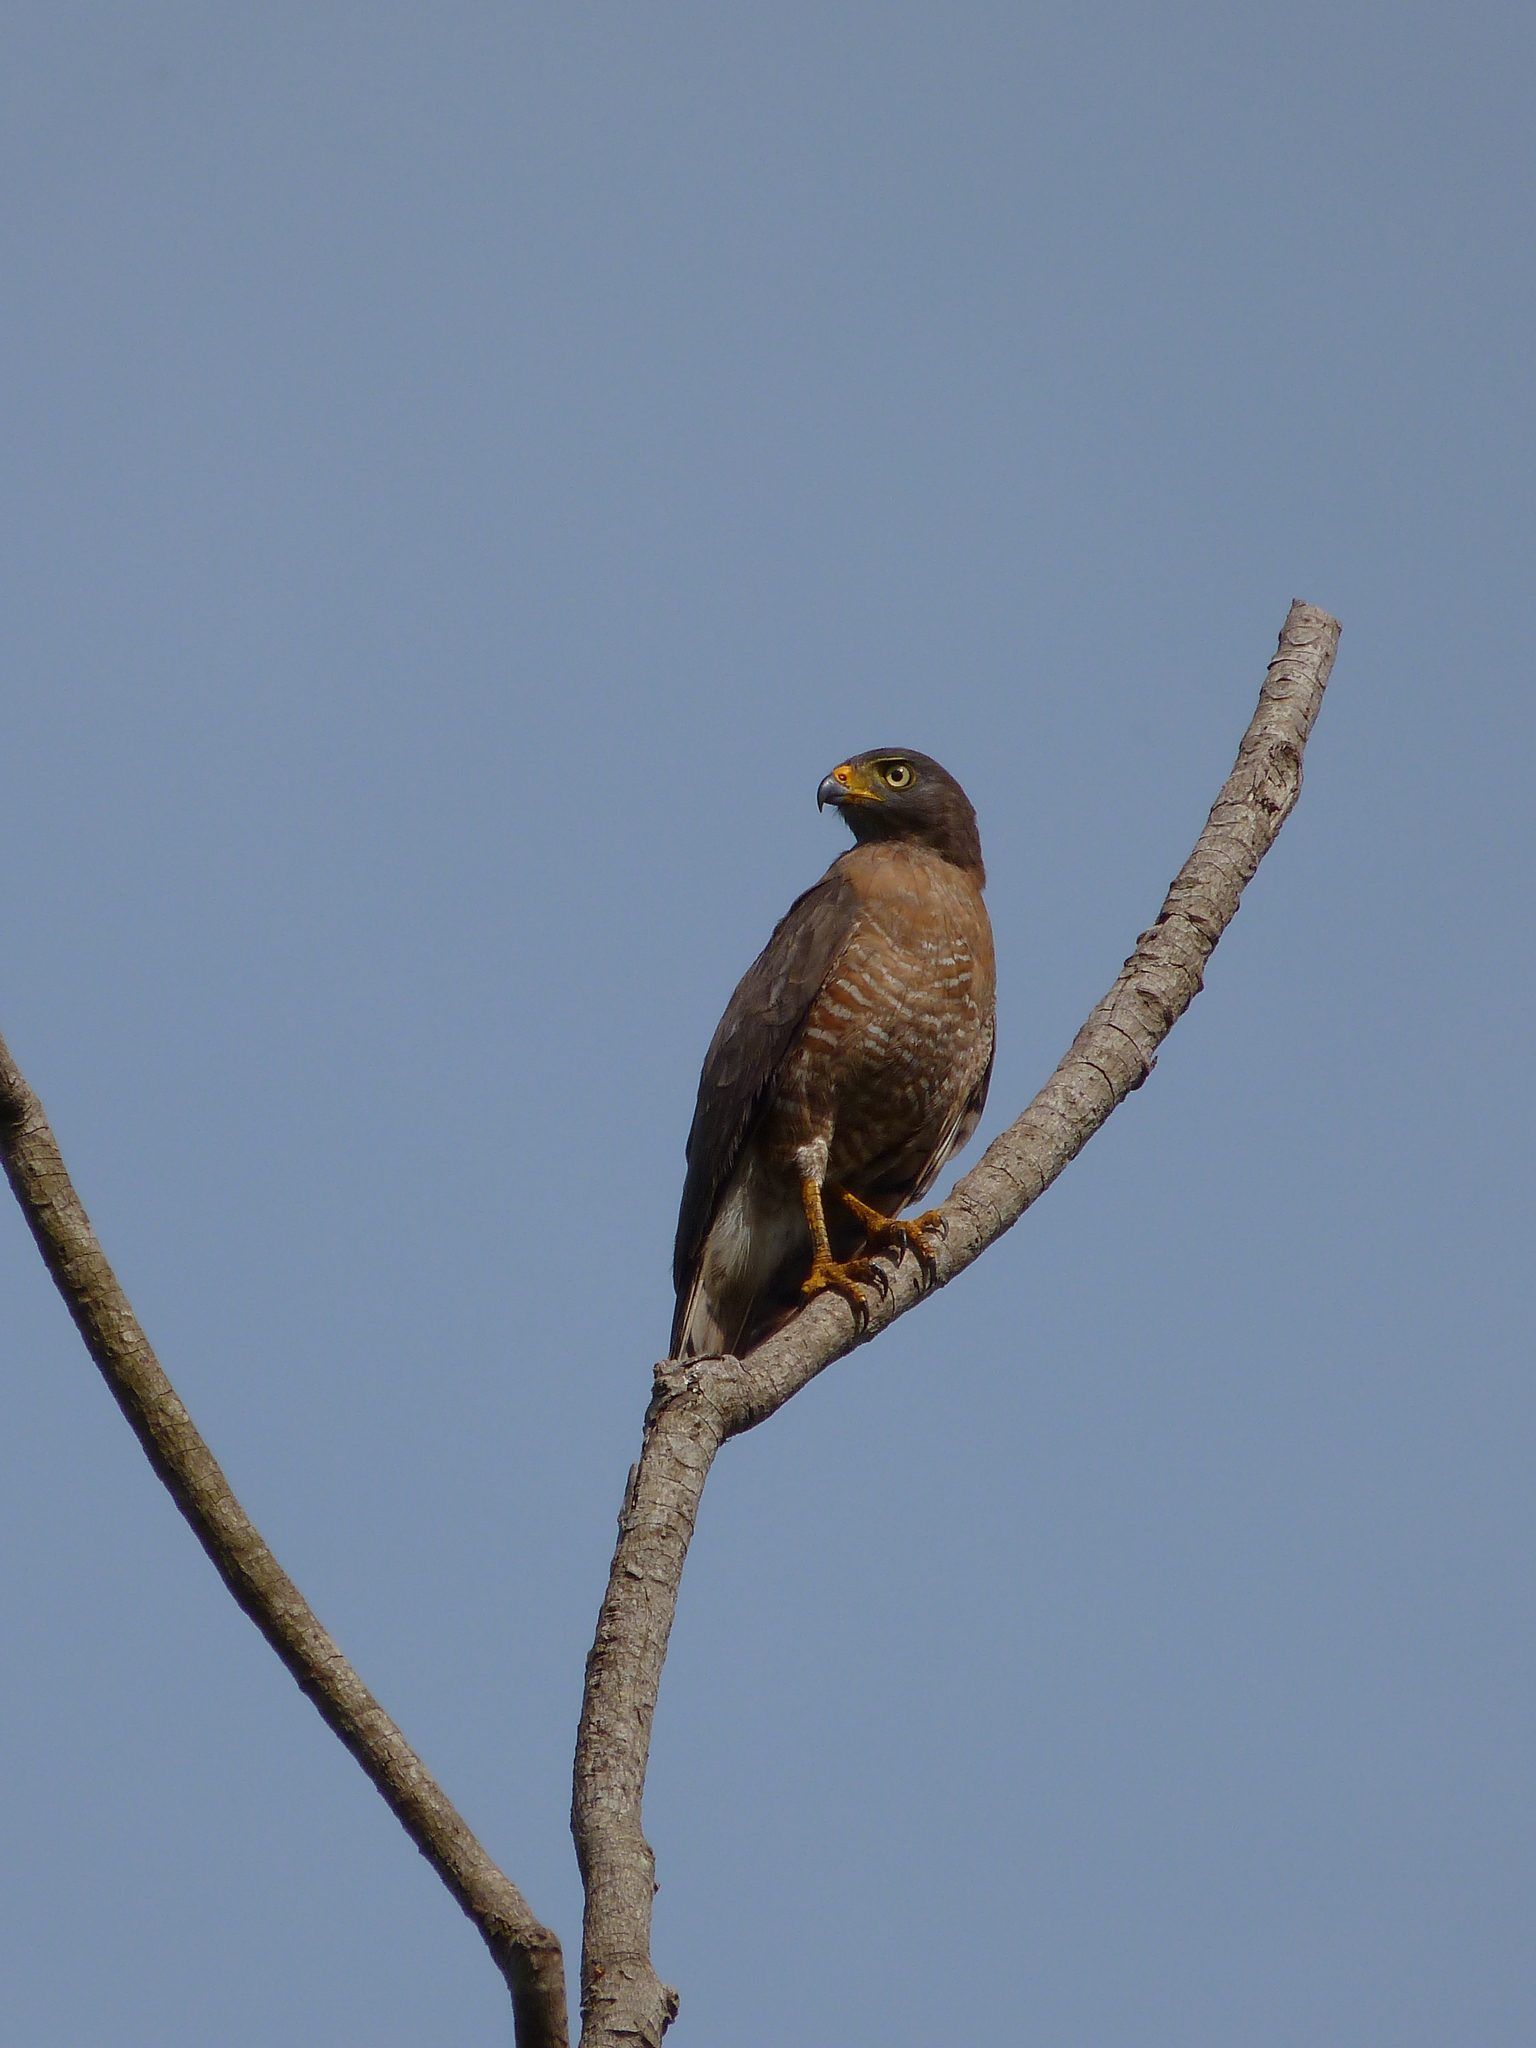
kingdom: Animalia
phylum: Chordata
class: Aves
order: Accipitriformes
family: Accipitridae
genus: Rupornis
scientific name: Rupornis magnirostris
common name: Roadside hawk
